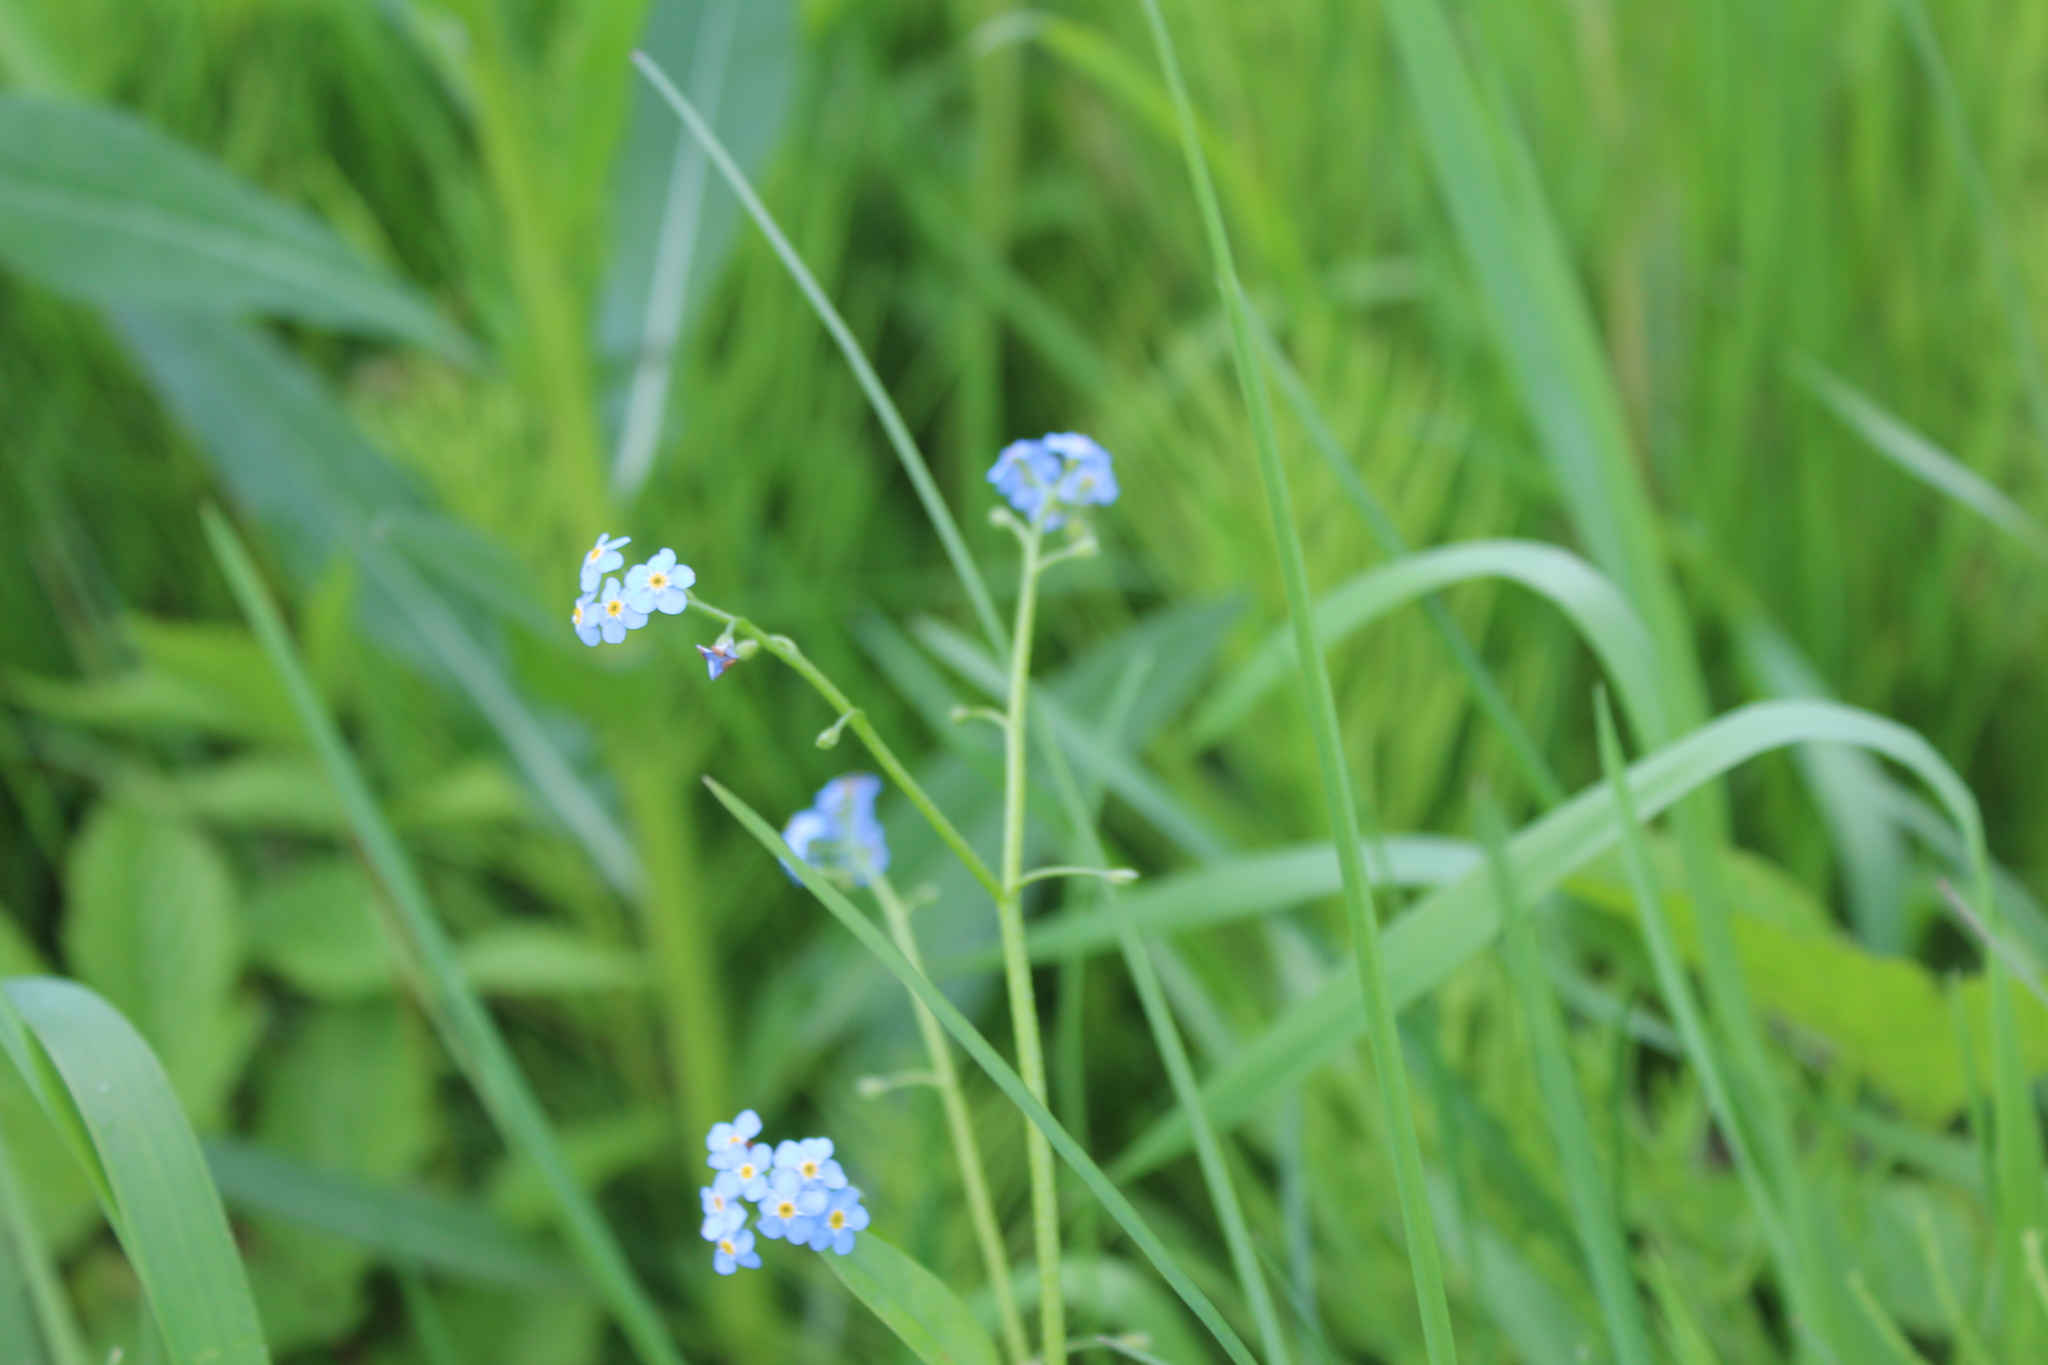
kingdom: Plantae
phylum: Tracheophyta
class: Magnoliopsida
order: Boraginales
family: Boraginaceae
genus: Myosotis
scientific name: Myosotis scorpioides
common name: Water forget-me-not
